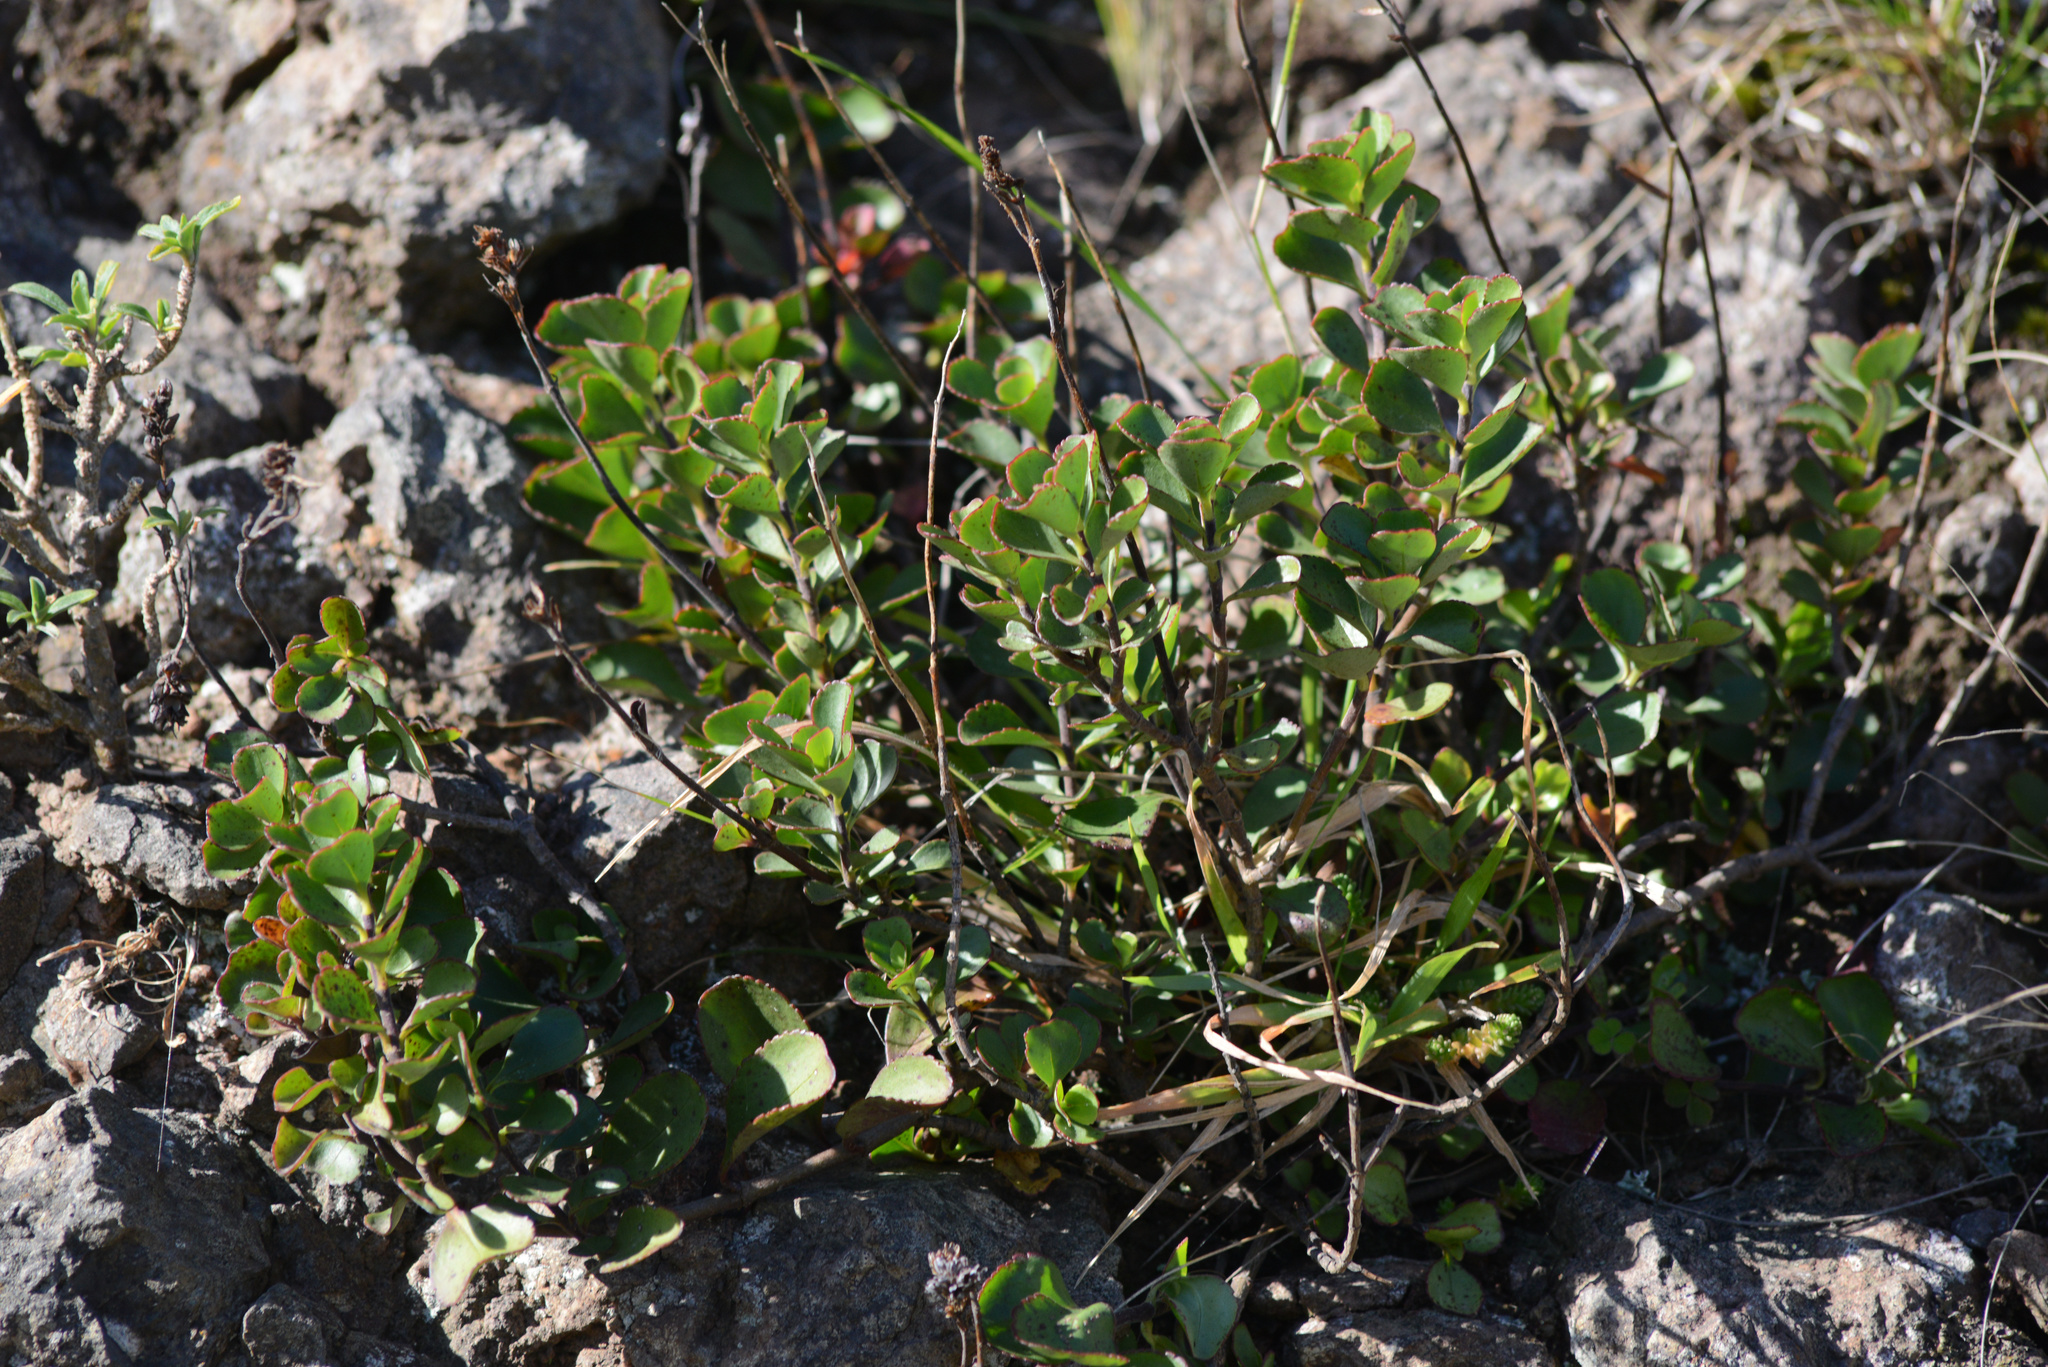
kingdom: Plantae
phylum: Tracheophyta
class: Magnoliopsida
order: Lamiales
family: Plantaginaceae
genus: Veronica
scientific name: Veronica lavaudiana
